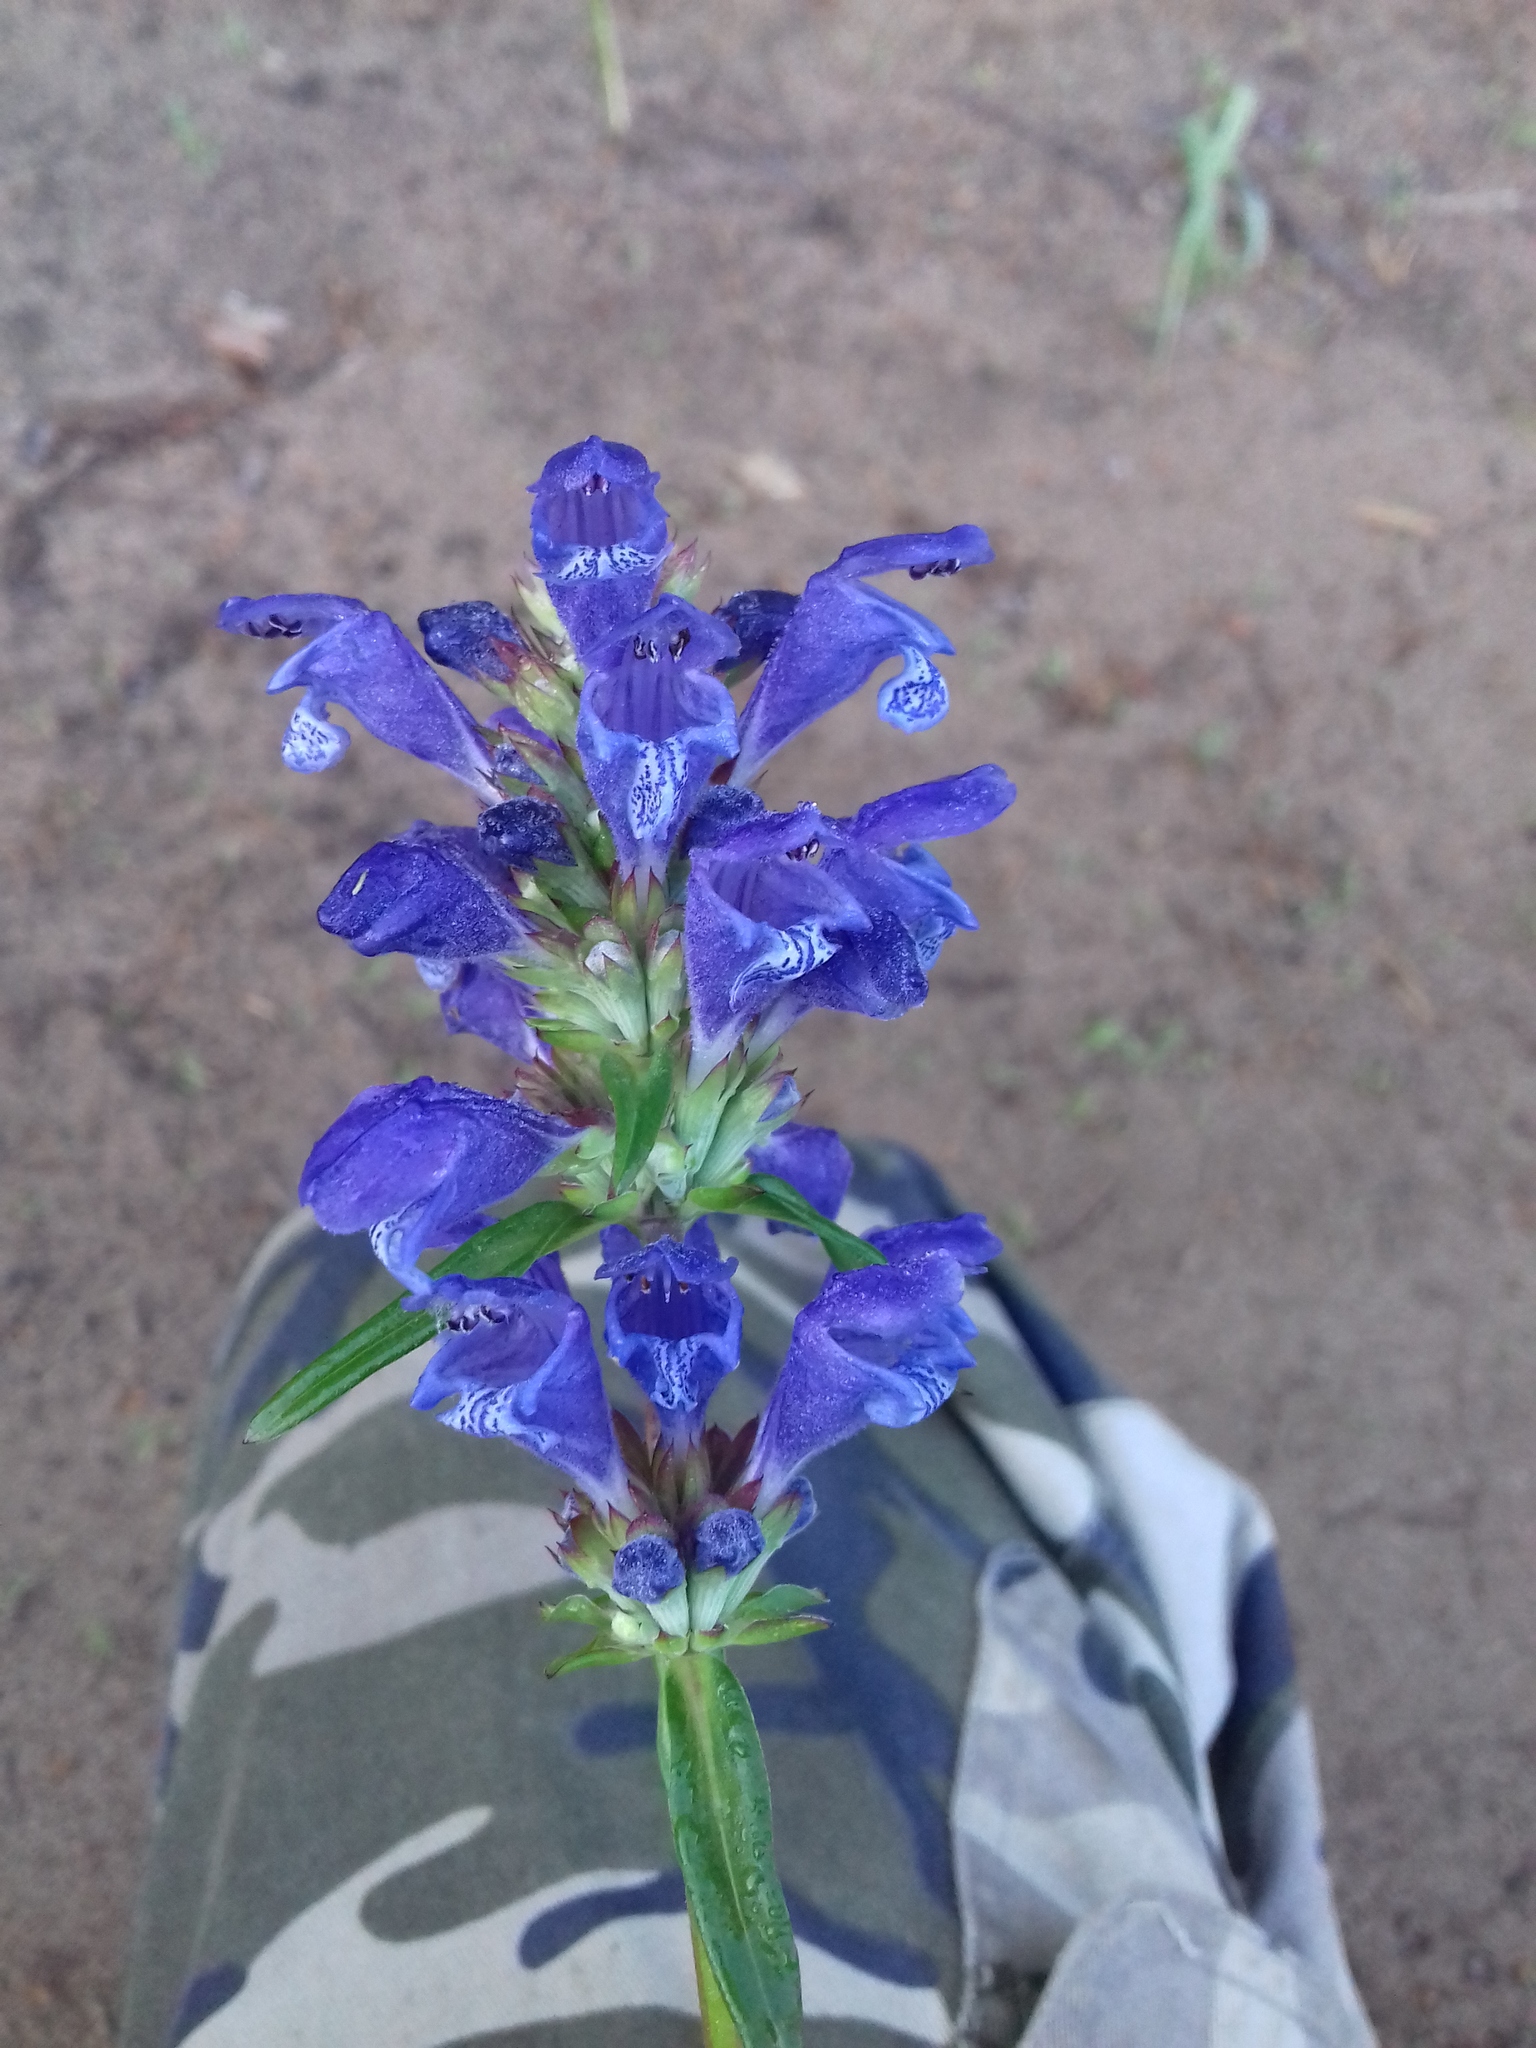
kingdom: Plantae
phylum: Tracheophyta
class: Magnoliopsida
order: Lamiales
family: Lamiaceae
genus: Dracocephalum
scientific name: Dracocephalum ruyschiana
